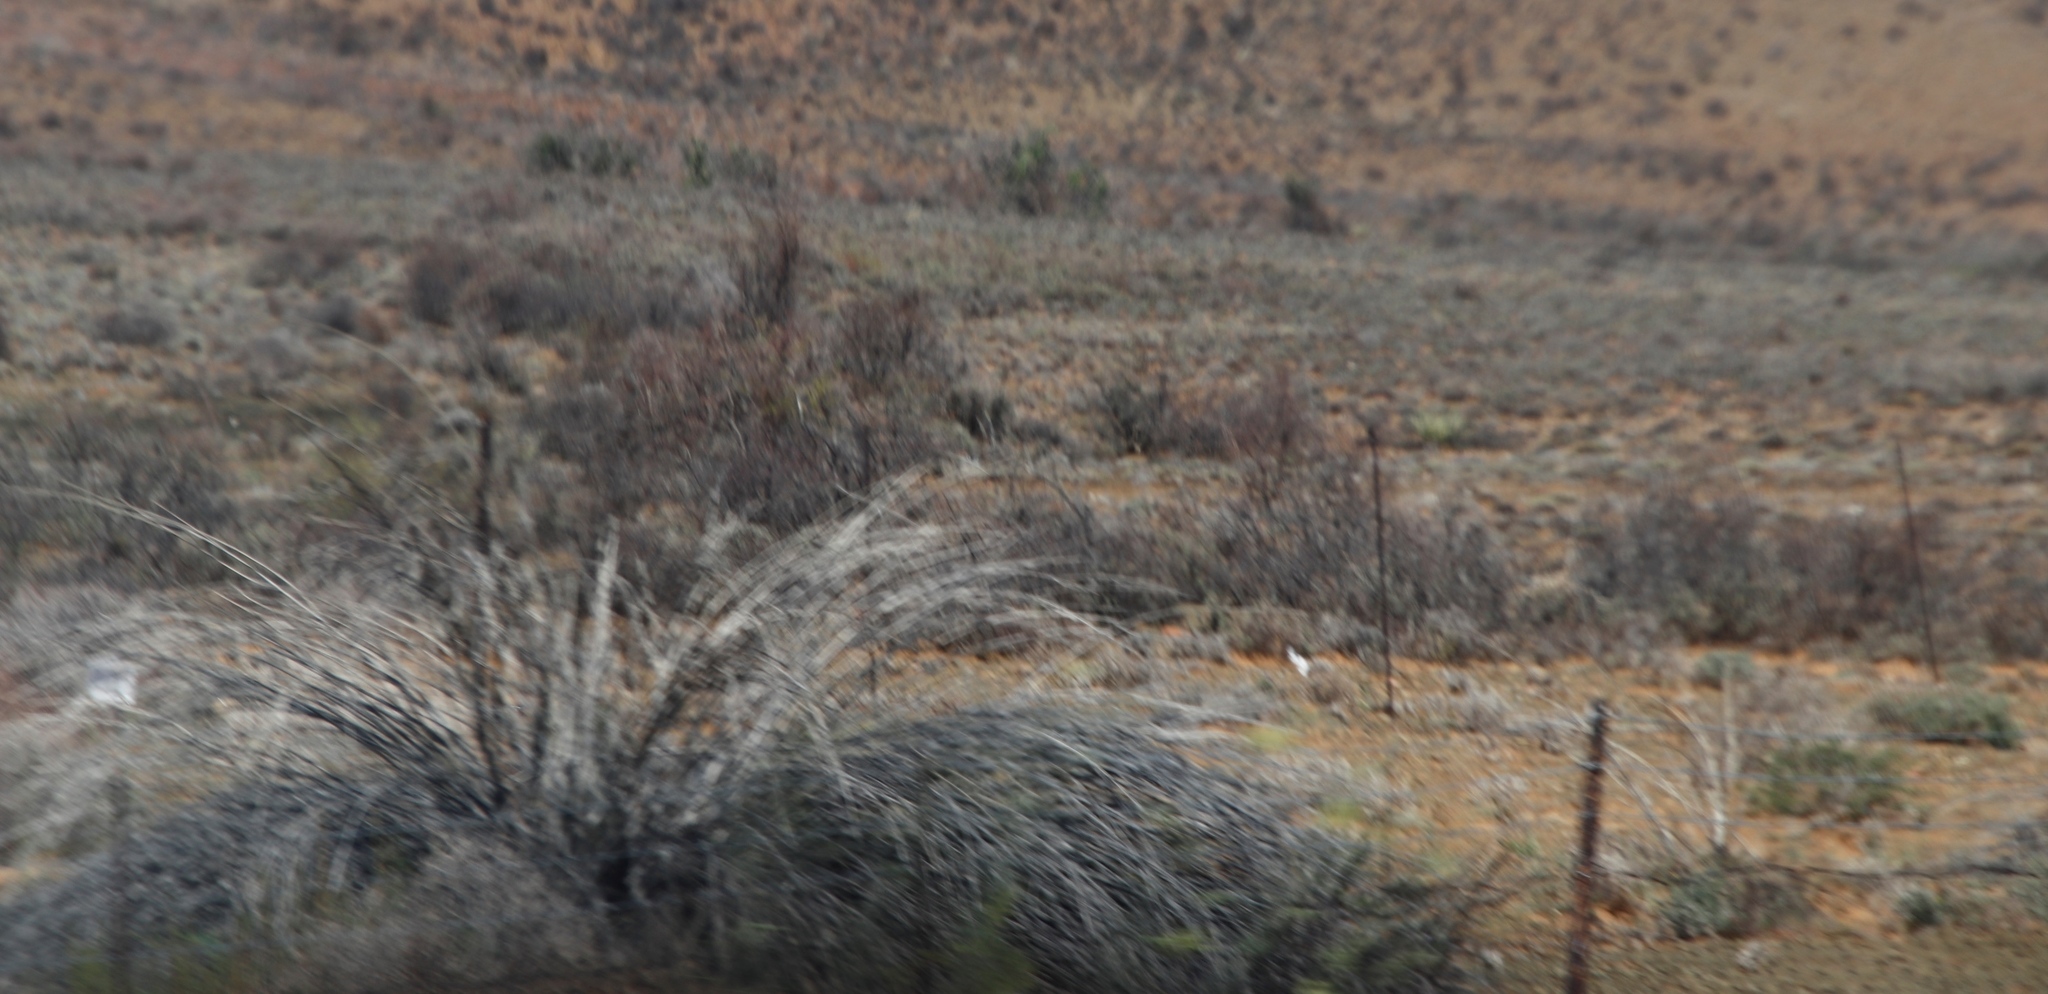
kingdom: Plantae
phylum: Tracheophyta
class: Magnoliopsida
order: Gentianales
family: Apocynaceae
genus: Gomphocarpus
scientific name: Gomphocarpus filiformis
